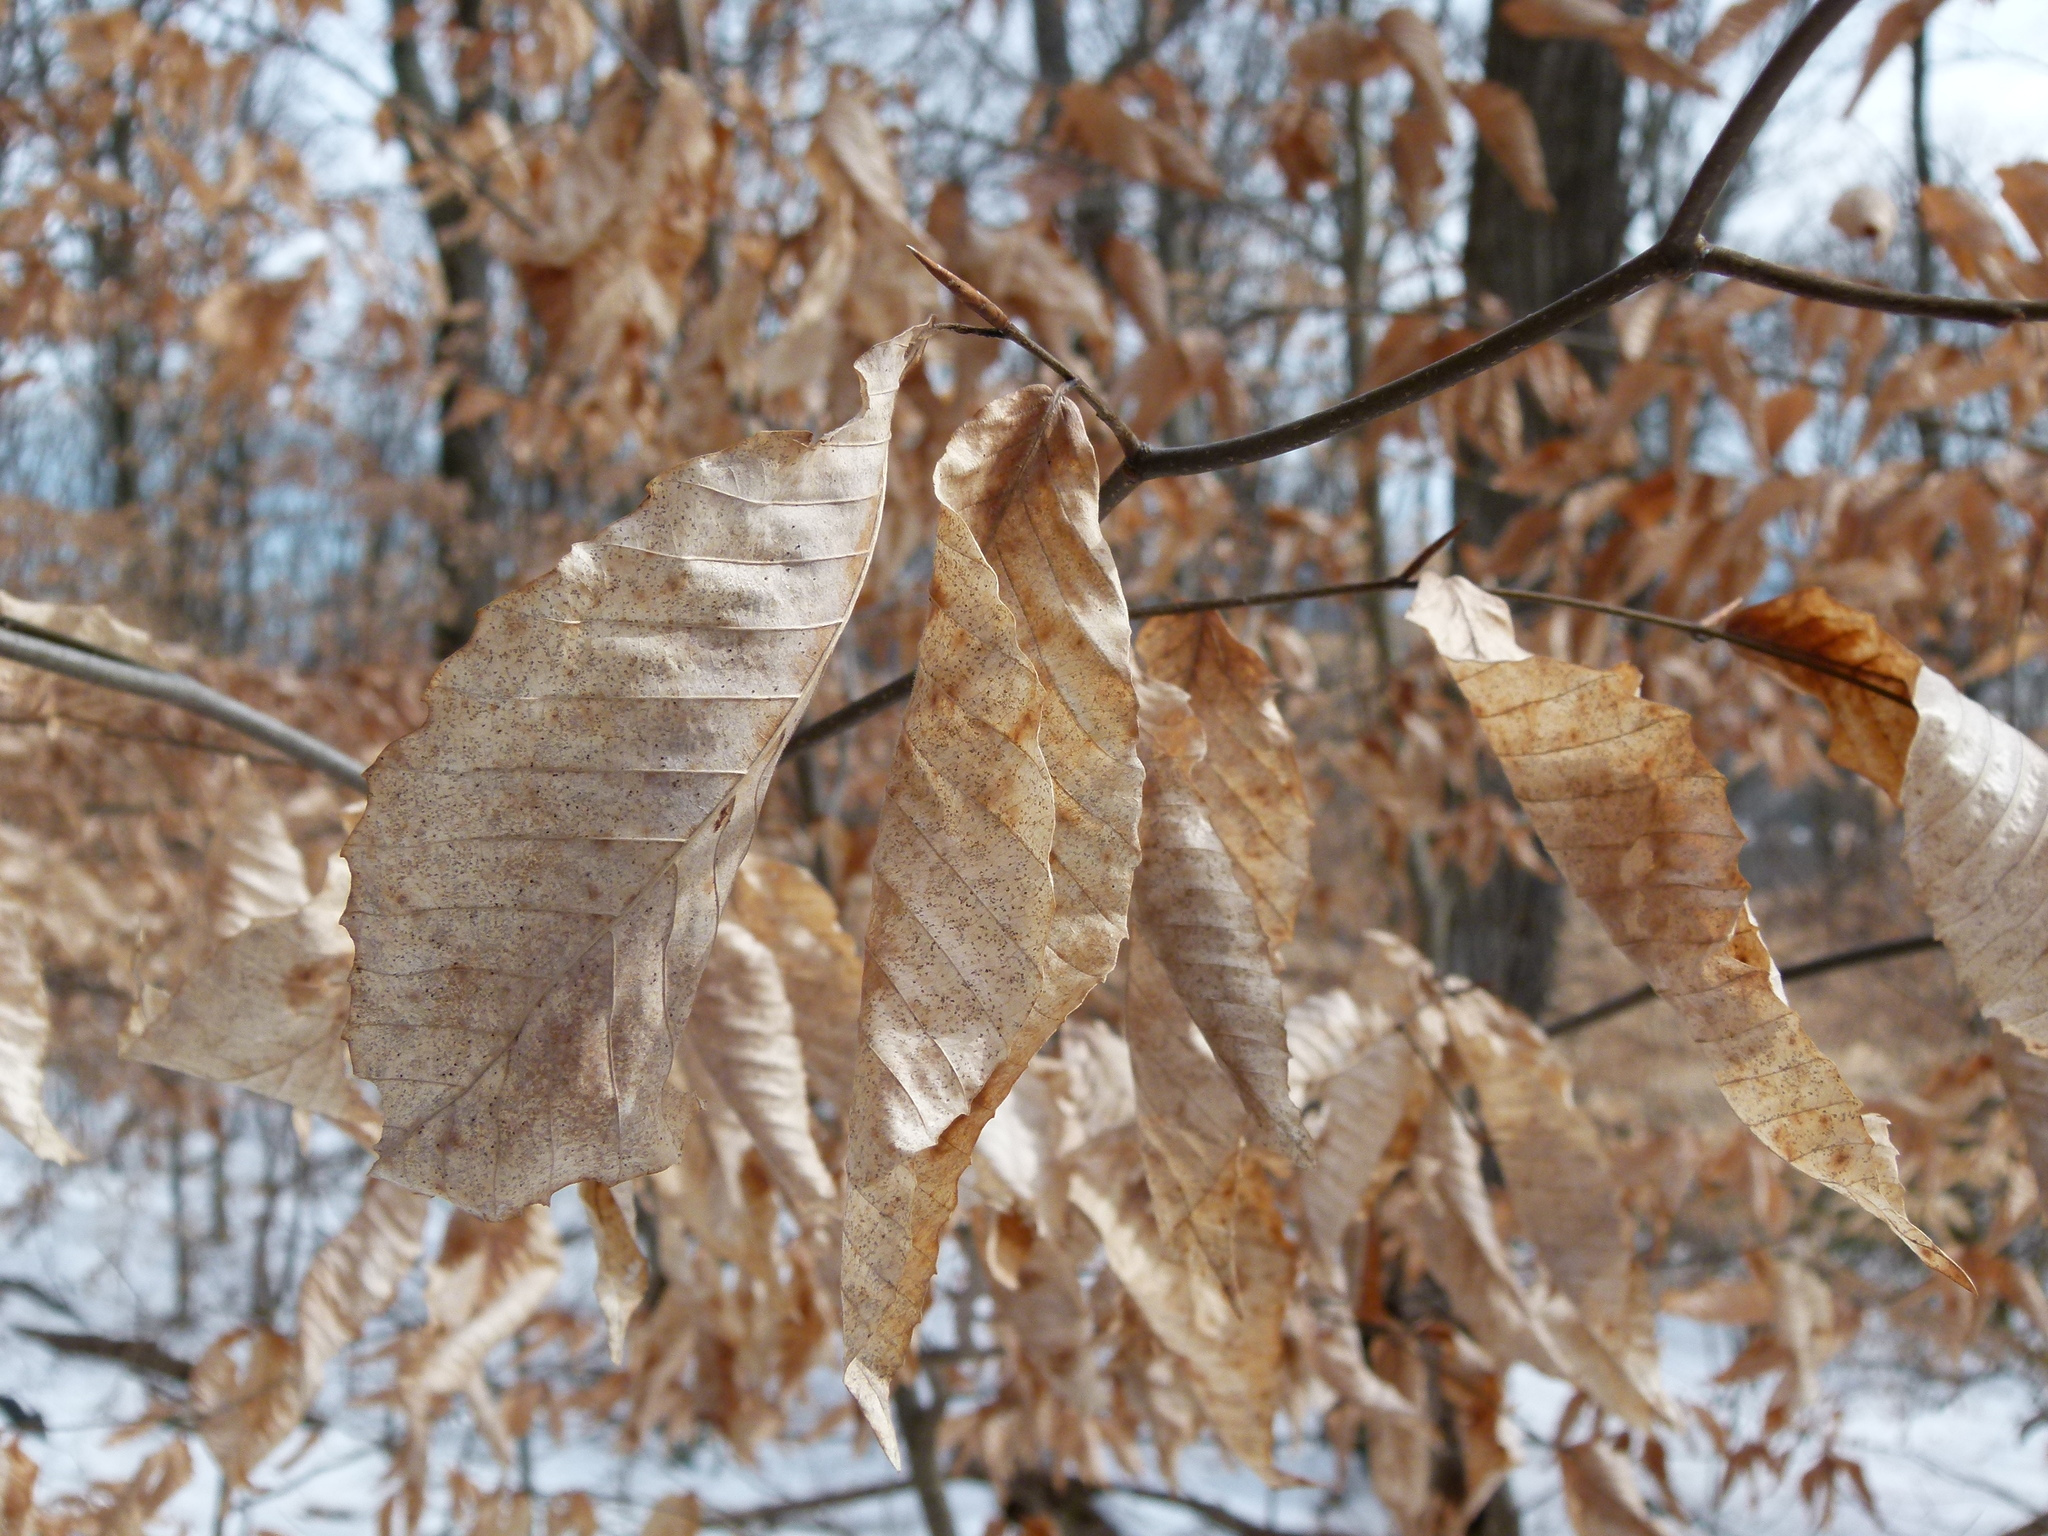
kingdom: Plantae
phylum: Tracheophyta
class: Magnoliopsida
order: Fagales
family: Fagaceae
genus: Fagus
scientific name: Fagus grandifolia
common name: American beech
